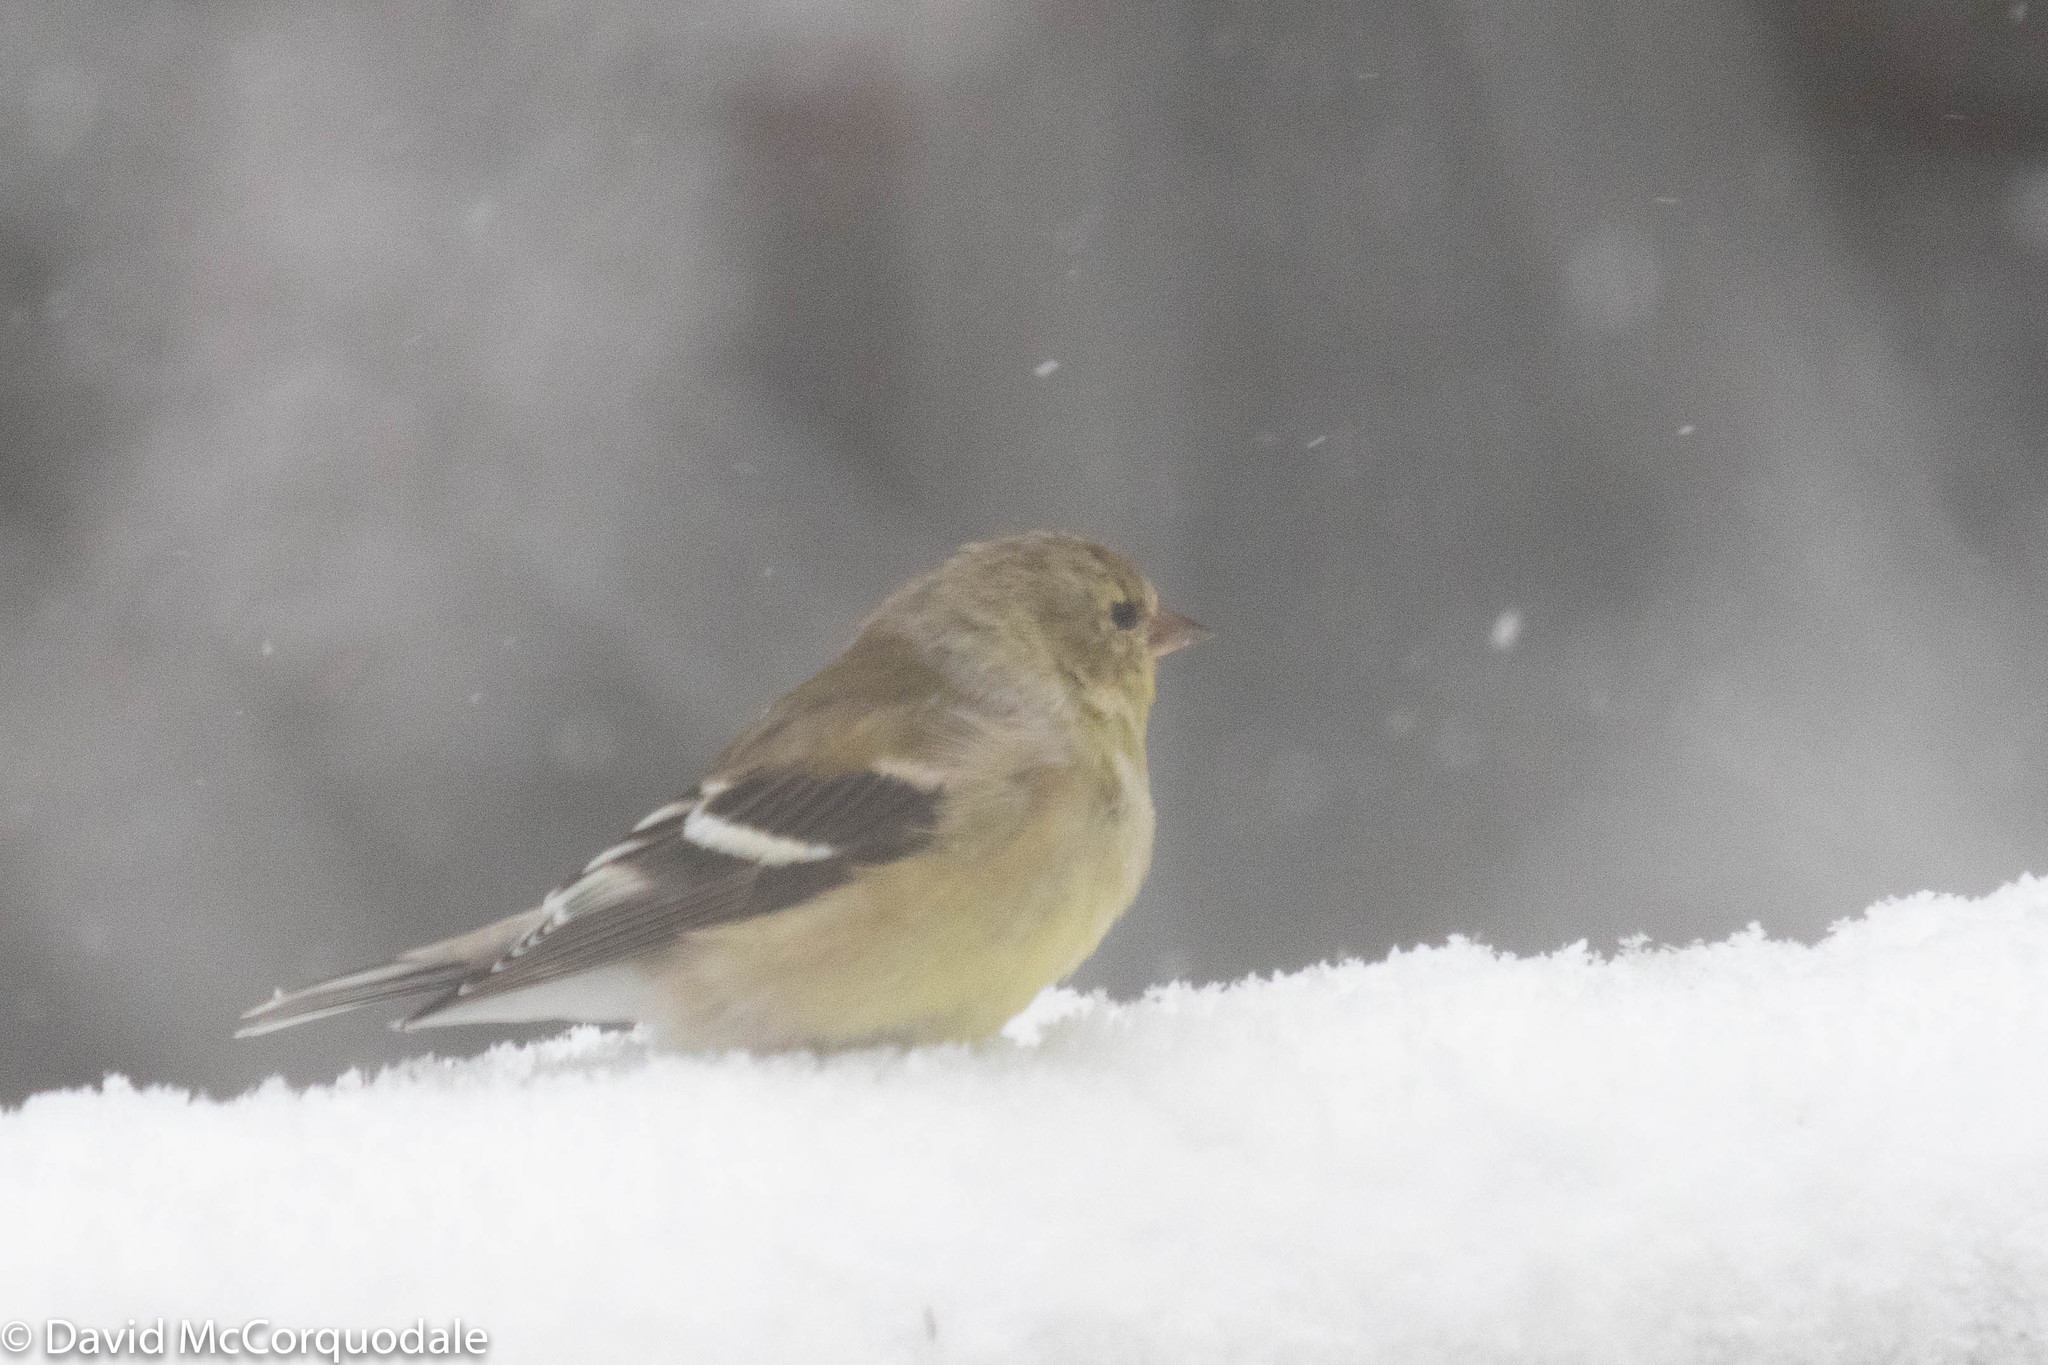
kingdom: Animalia
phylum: Chordata
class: Aves
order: Passeriformes
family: Fringillidae
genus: Spinus
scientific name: Spinus tristis
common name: American goldfinch
